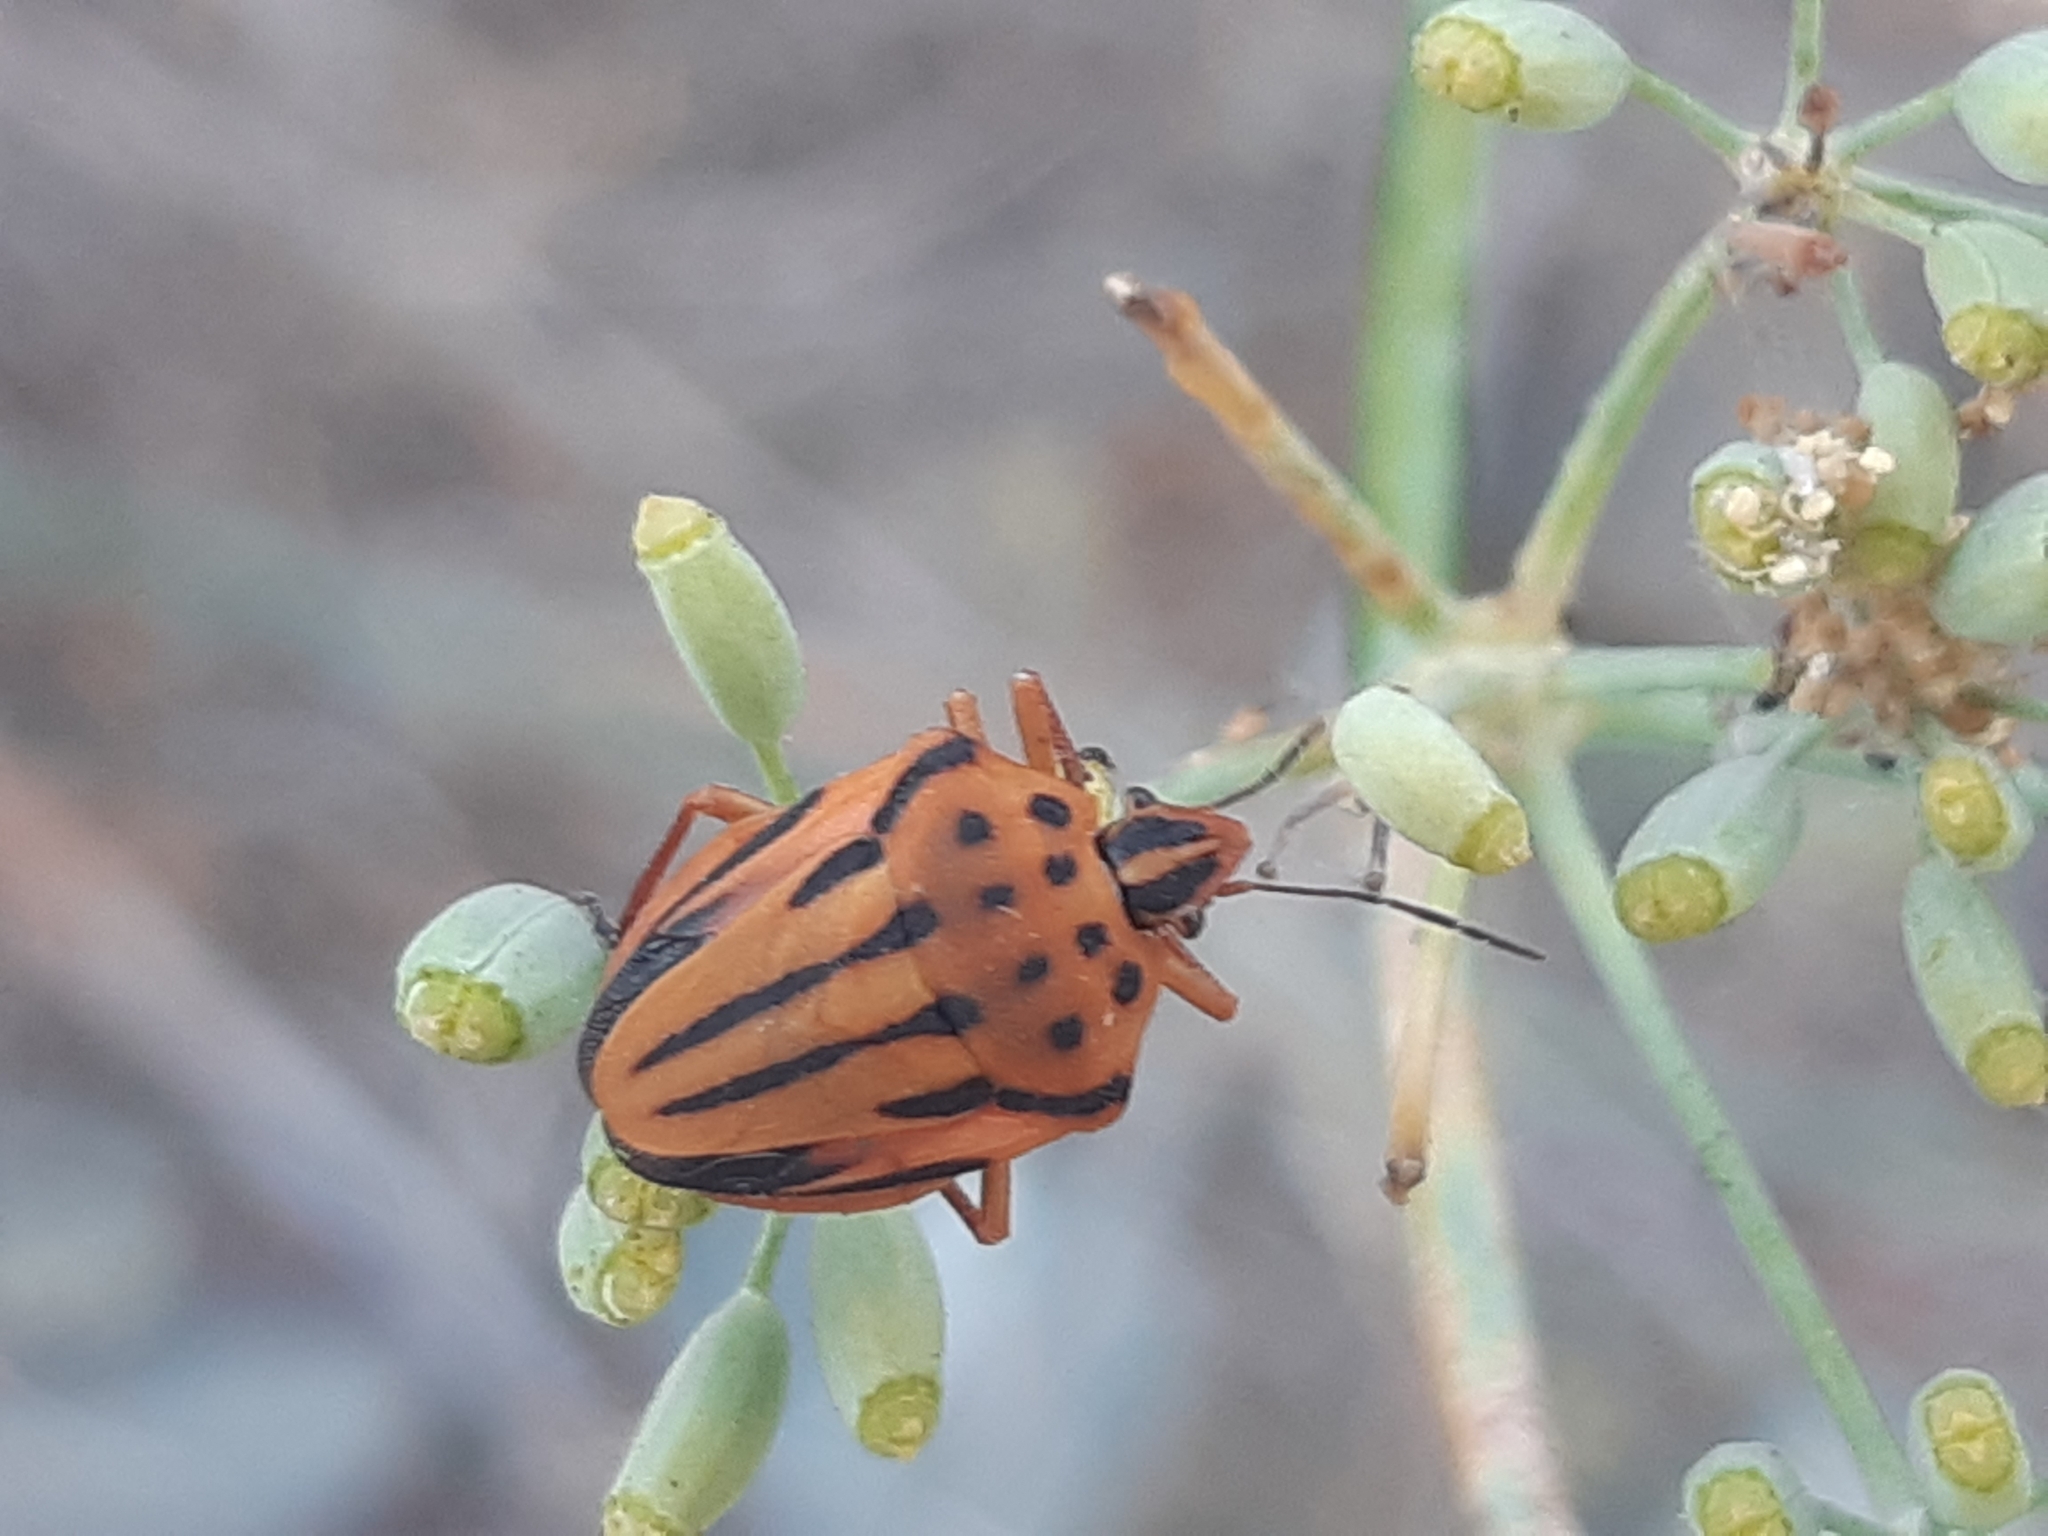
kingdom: Animalia
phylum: Arthropoda
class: Insecta
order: Hemiptera
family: Pentatomidae
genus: Graphosoma
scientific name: Graphosoma semipunctatum
